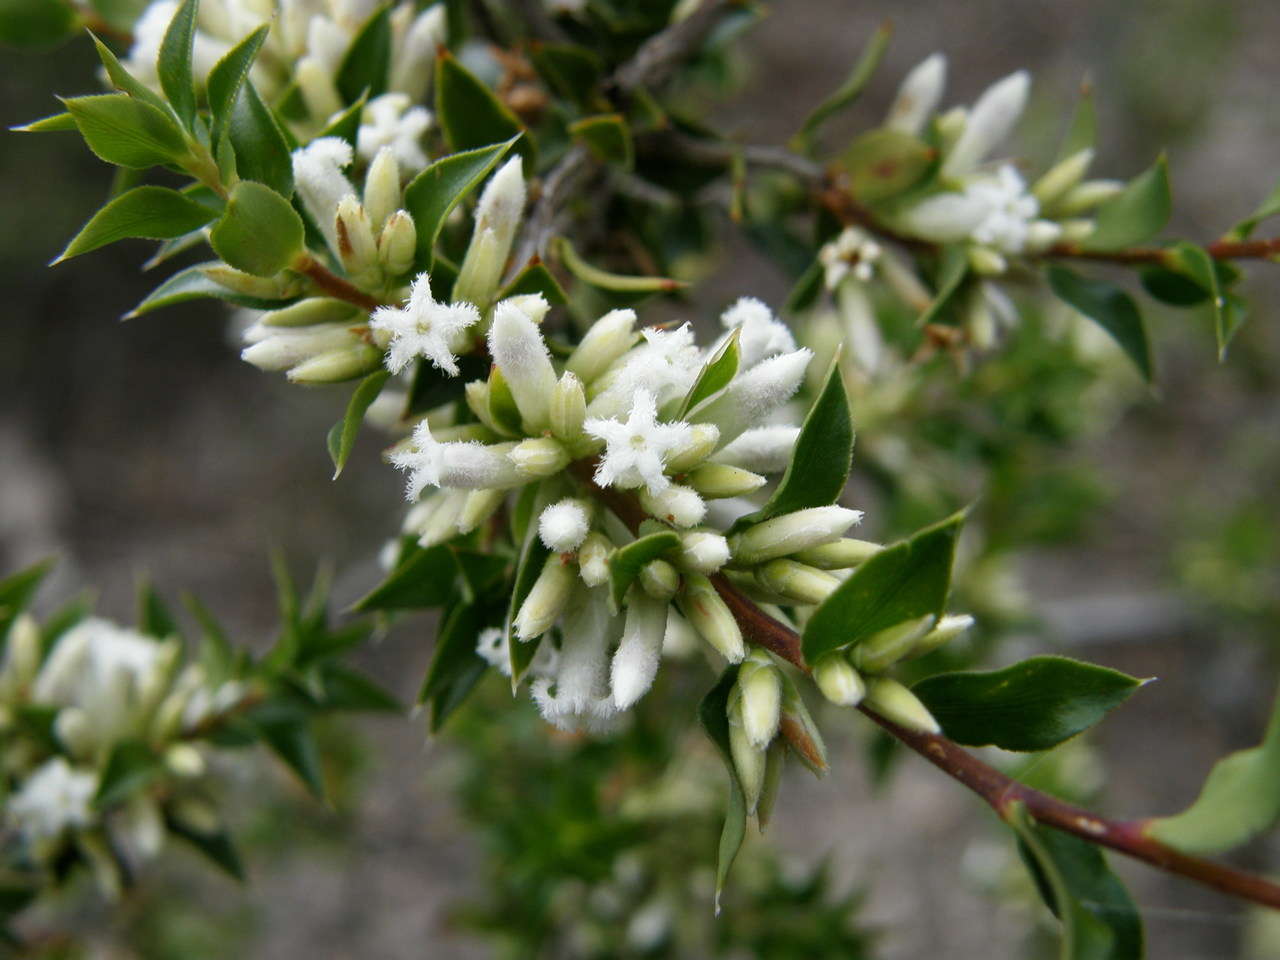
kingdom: Plantae
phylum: Tracheophyta
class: Magnoliopsida
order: Ericales
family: Ericaceae
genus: Styphelia
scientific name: Styphelia rufa
